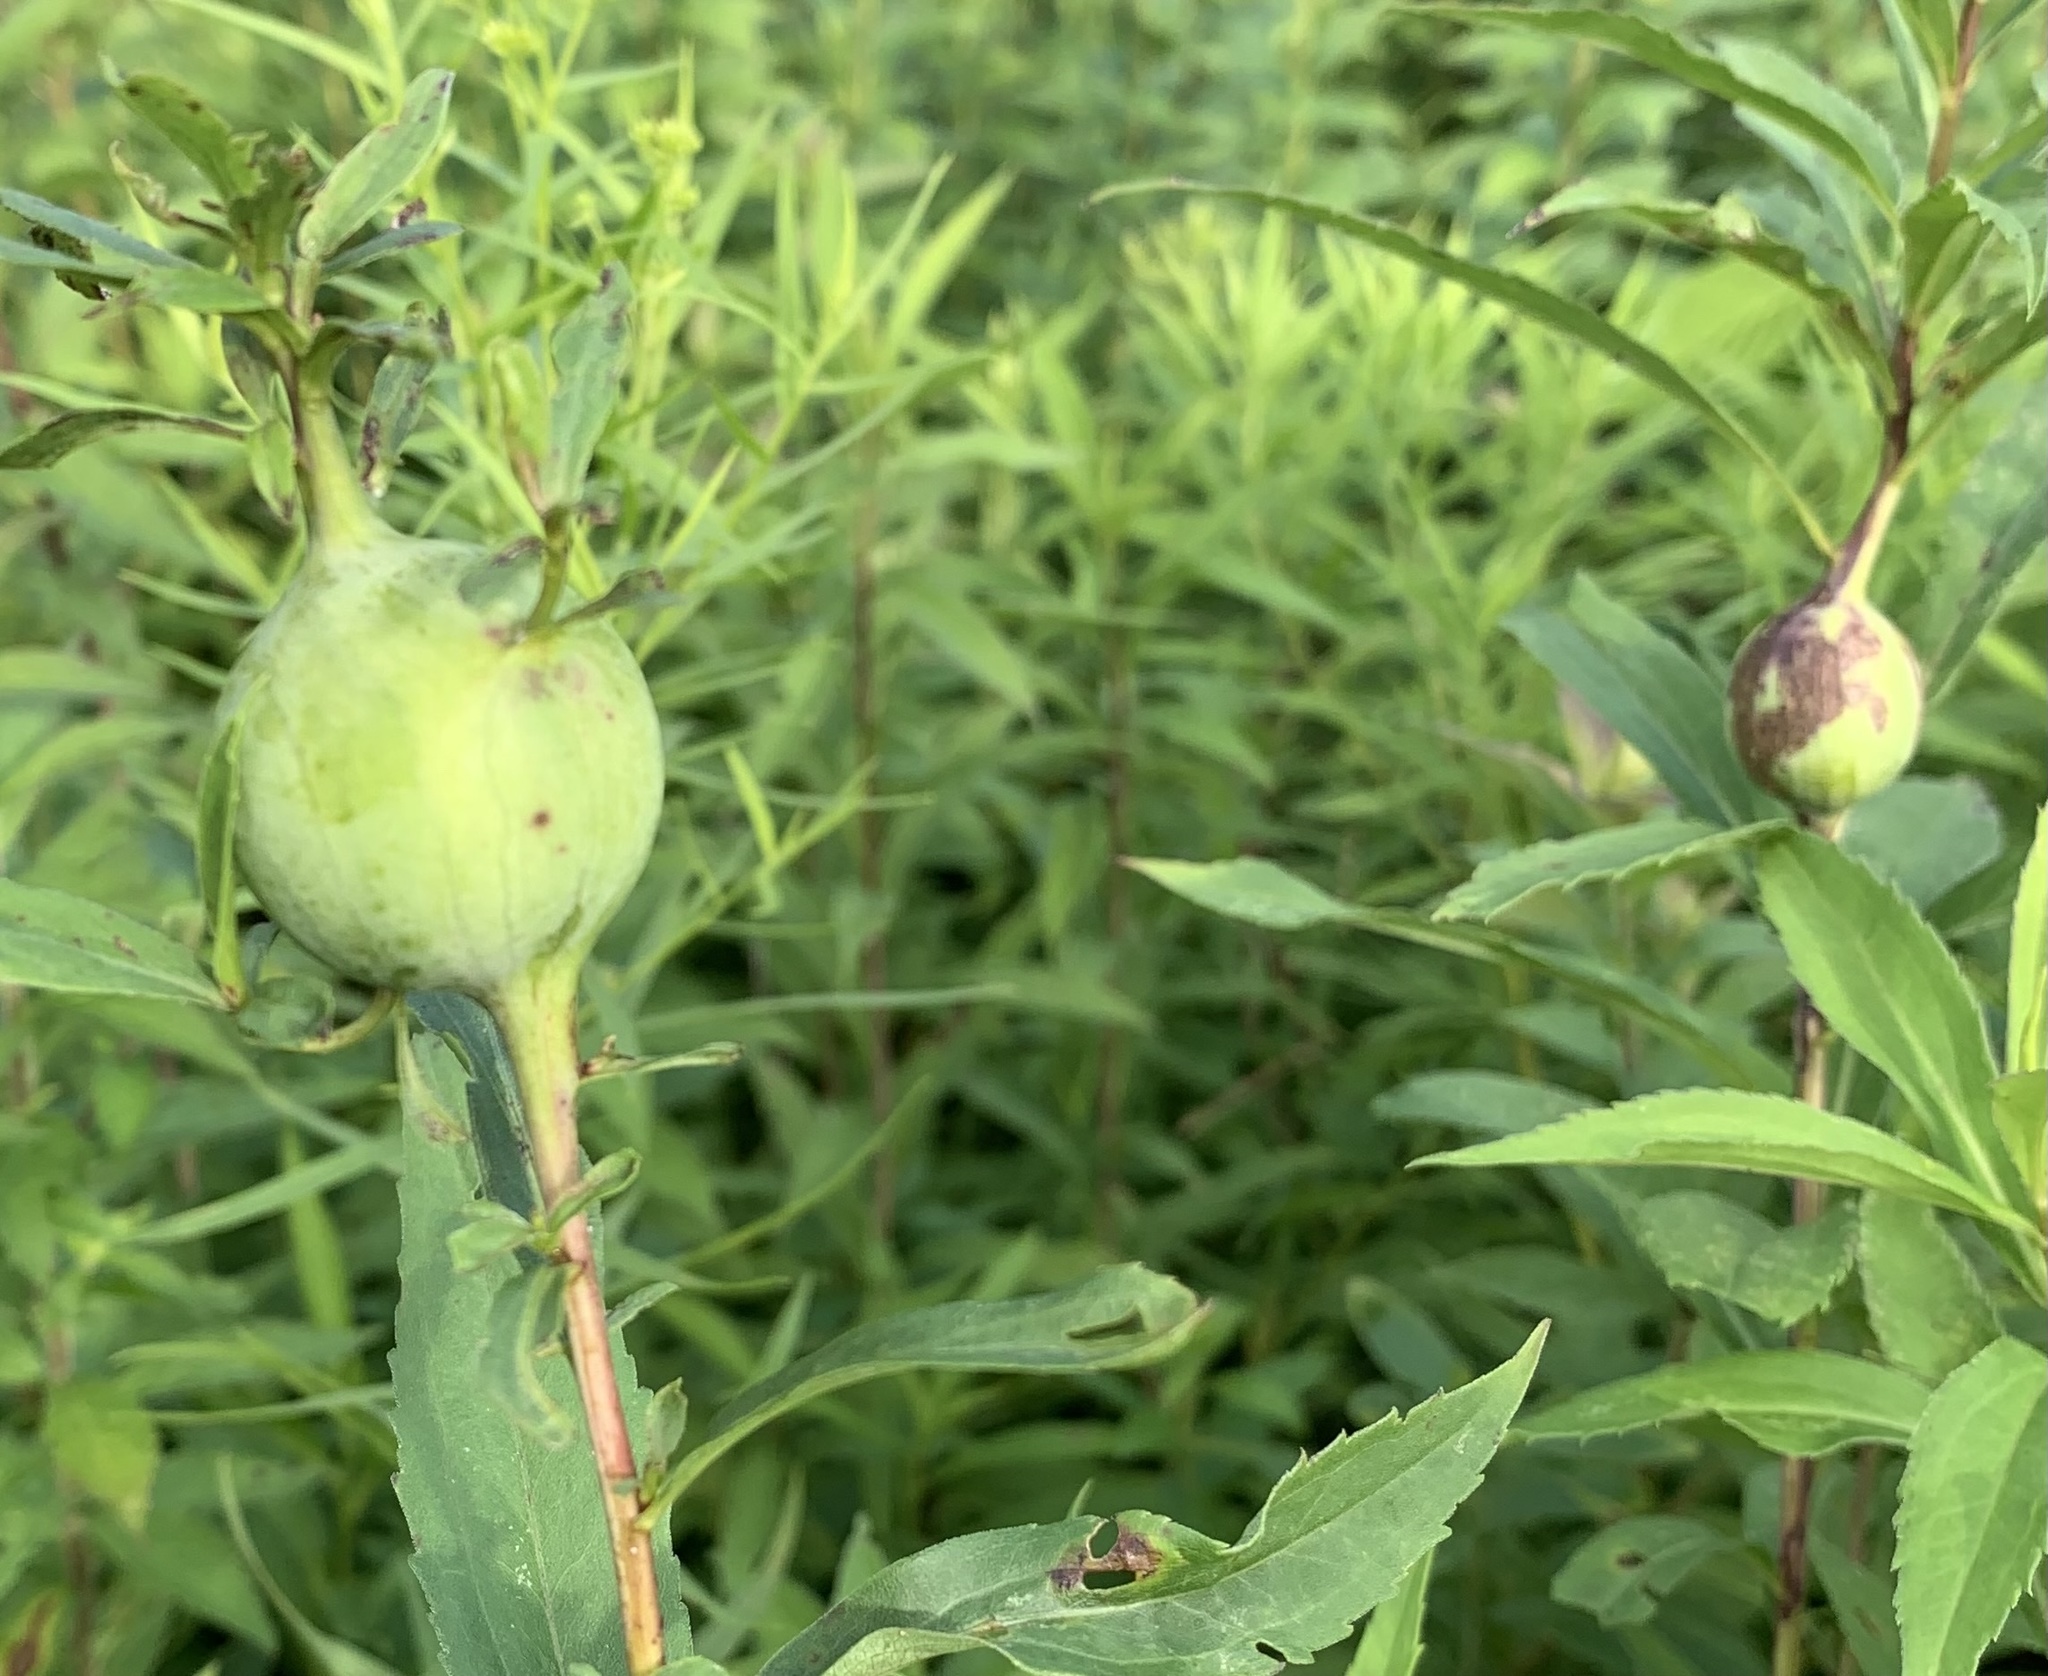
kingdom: Animalia
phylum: Arthropoda
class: Insecta
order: Diptera
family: Tephritidae
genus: Eurosta
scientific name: Eurosta solidaginis
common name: Goldenrod gall fly
